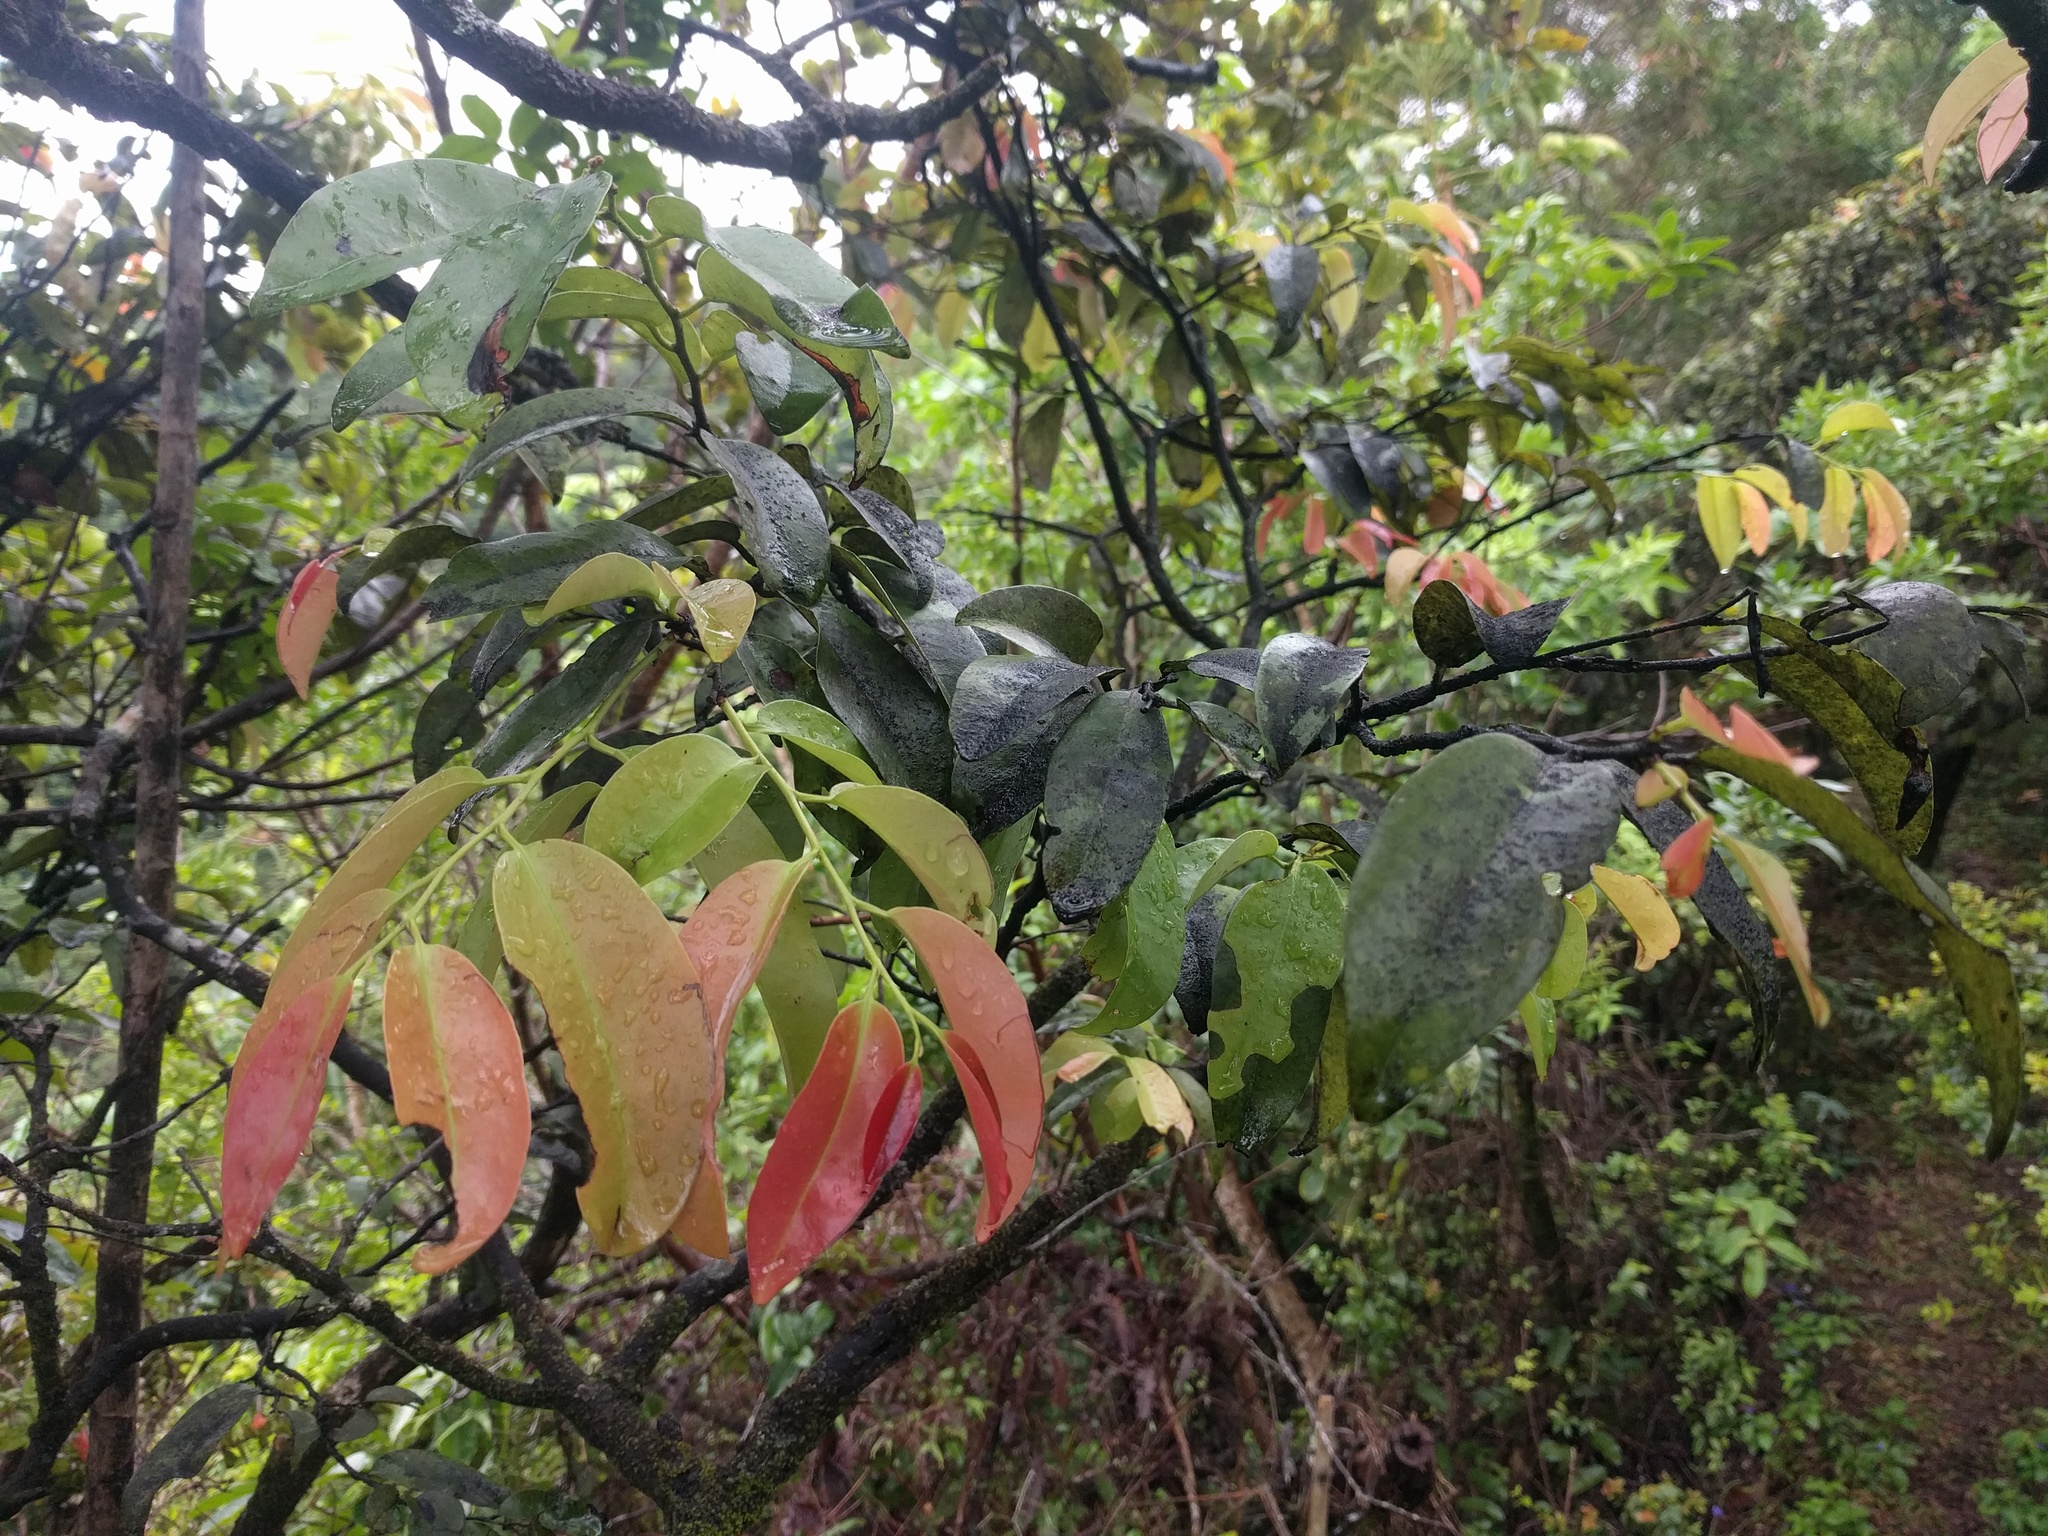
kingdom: Plantae
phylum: Tracheophyta
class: Magnoliopsida
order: Ericales
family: Ebenaceae
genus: Diospyros
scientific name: Diospyros sandwicensis
